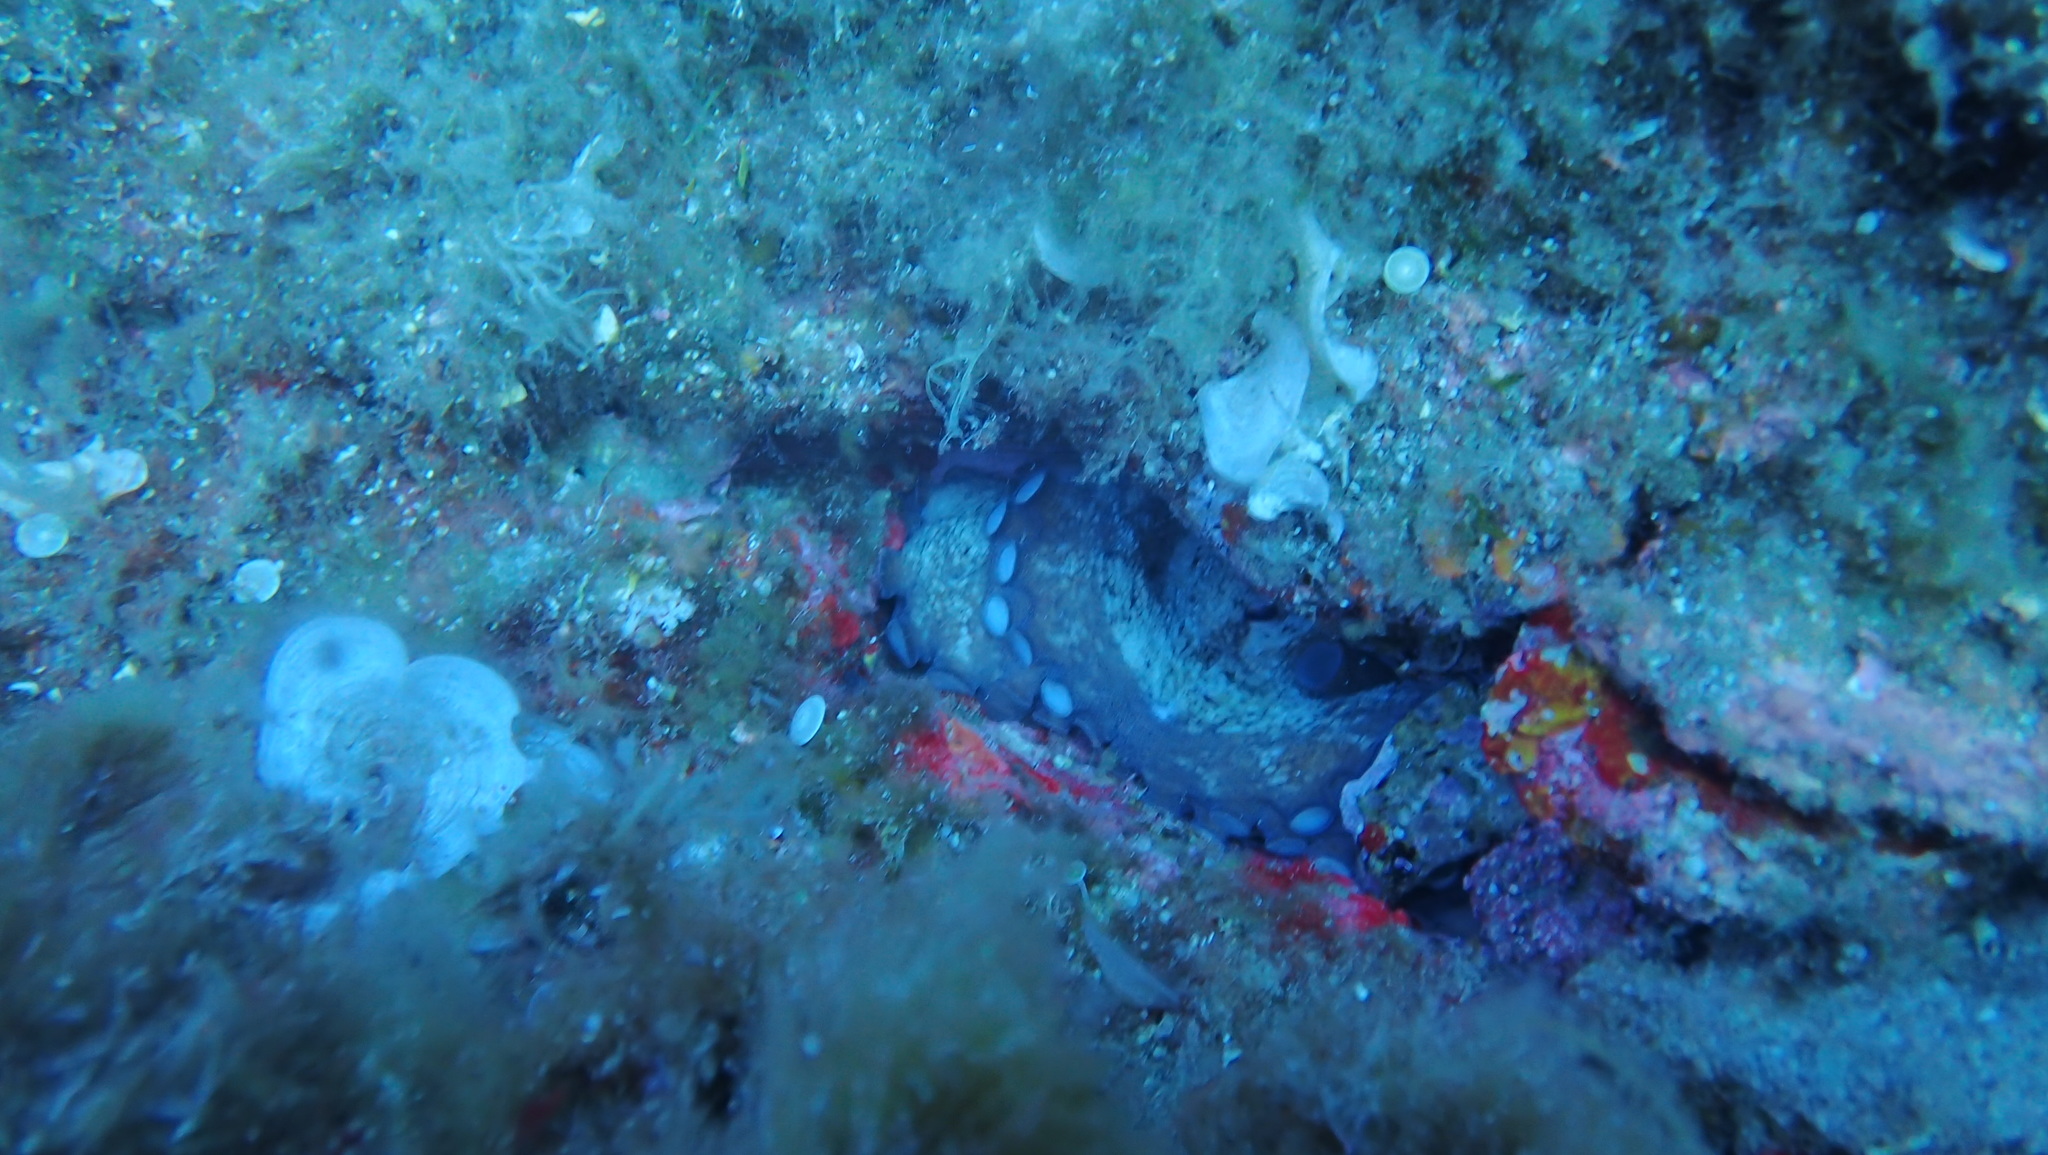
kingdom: Animalia
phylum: Mollusca
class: Cephalopoda
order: Octopoda
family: Octopodidae
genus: Octopus
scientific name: Octopus vulgaris
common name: Common octopus
